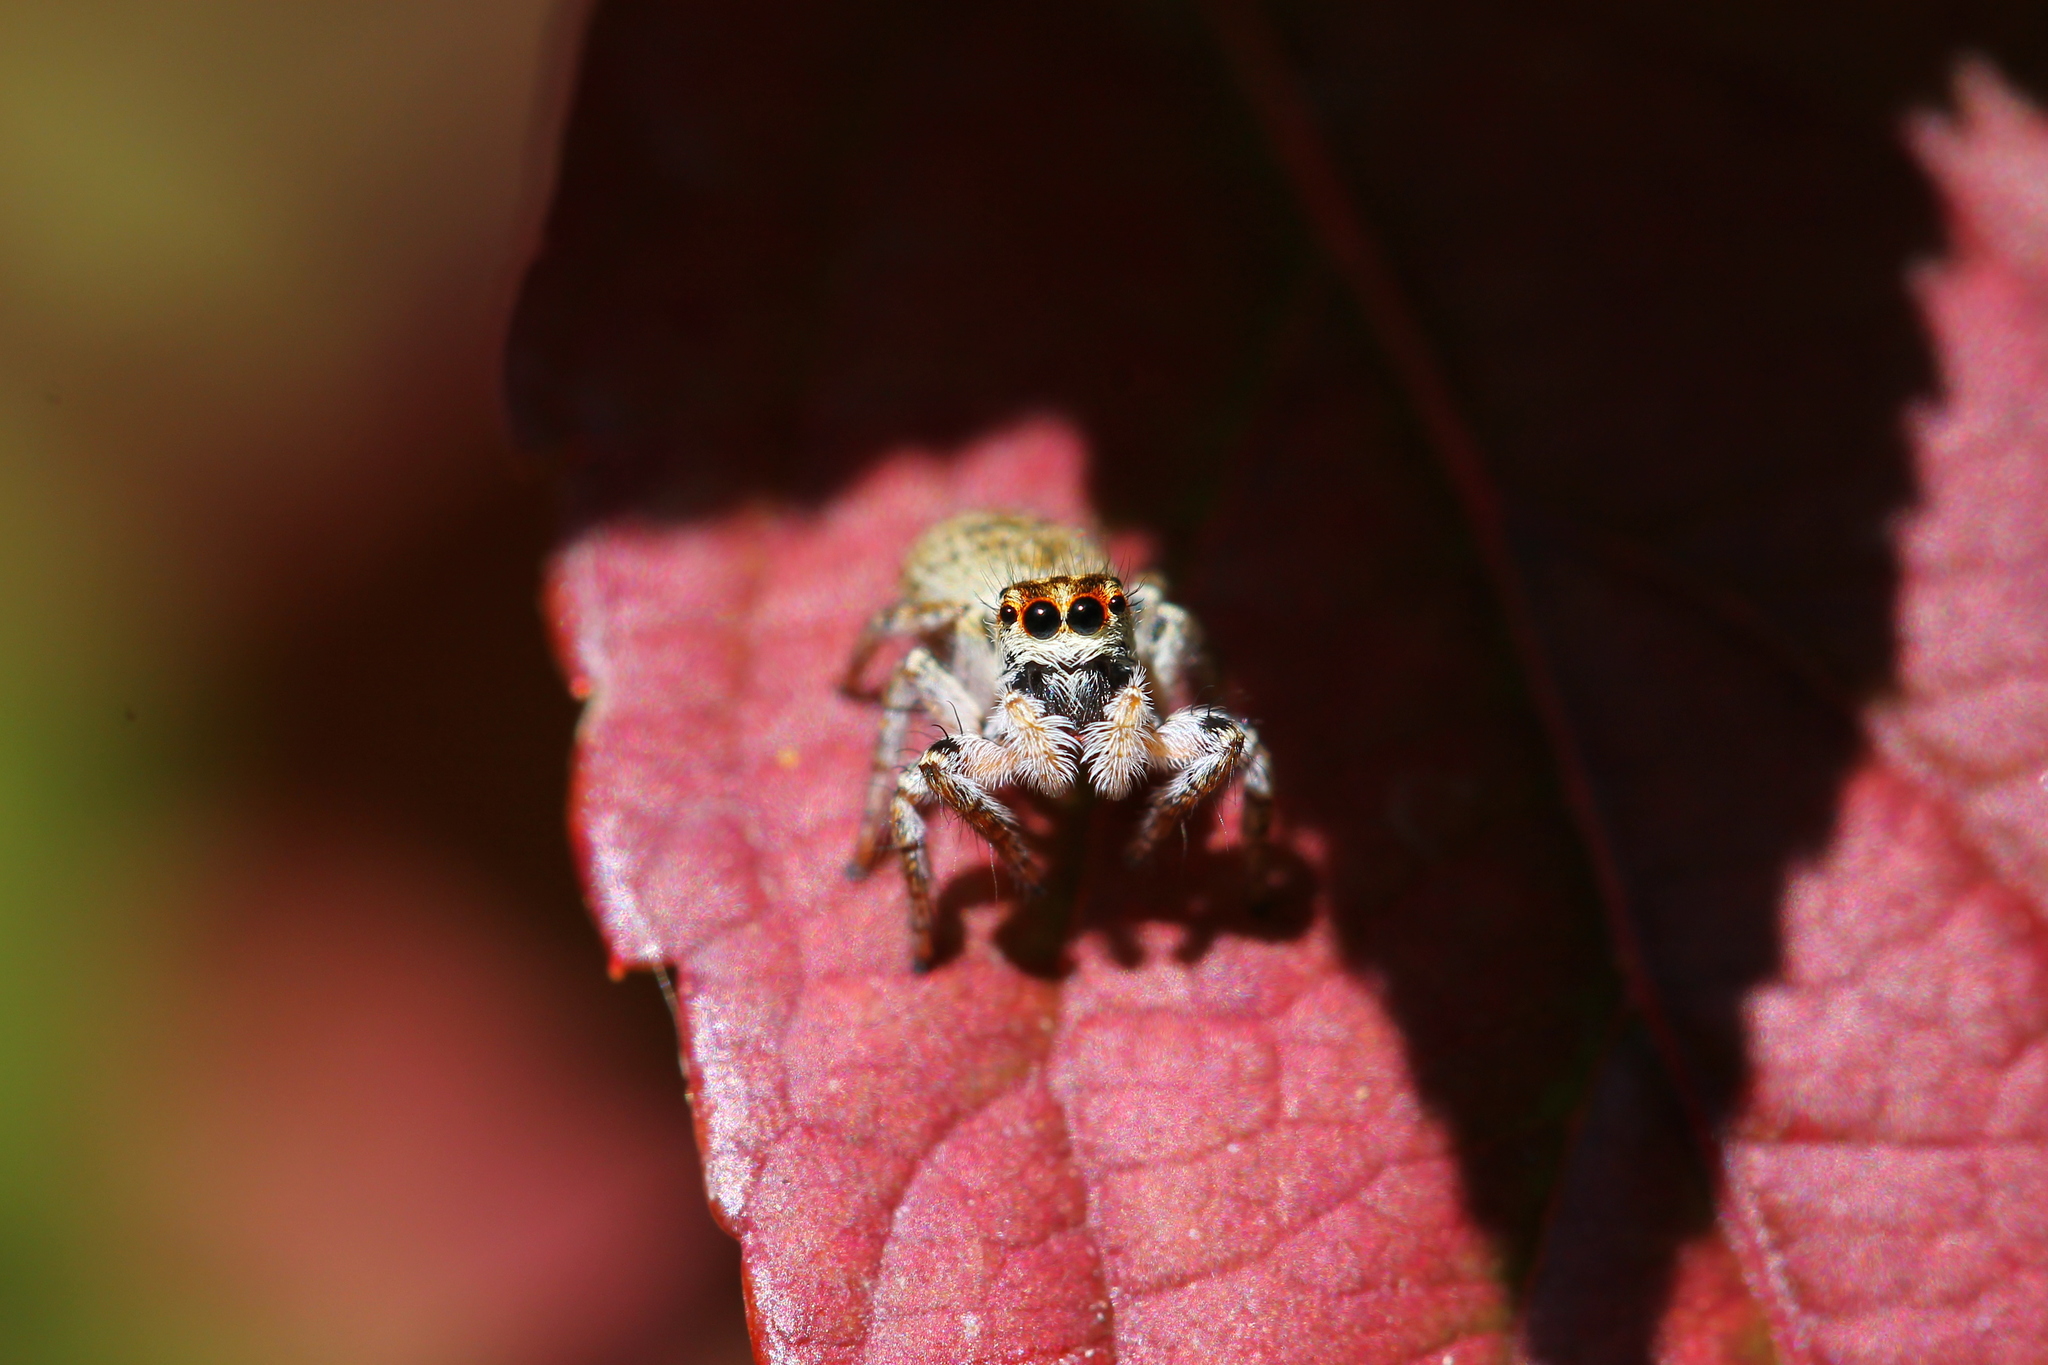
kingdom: Animalia
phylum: Arthropoda
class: Arachnida
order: Araneae
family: Salticidae
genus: Carrhotus
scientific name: Carrhotus xanthogramma
